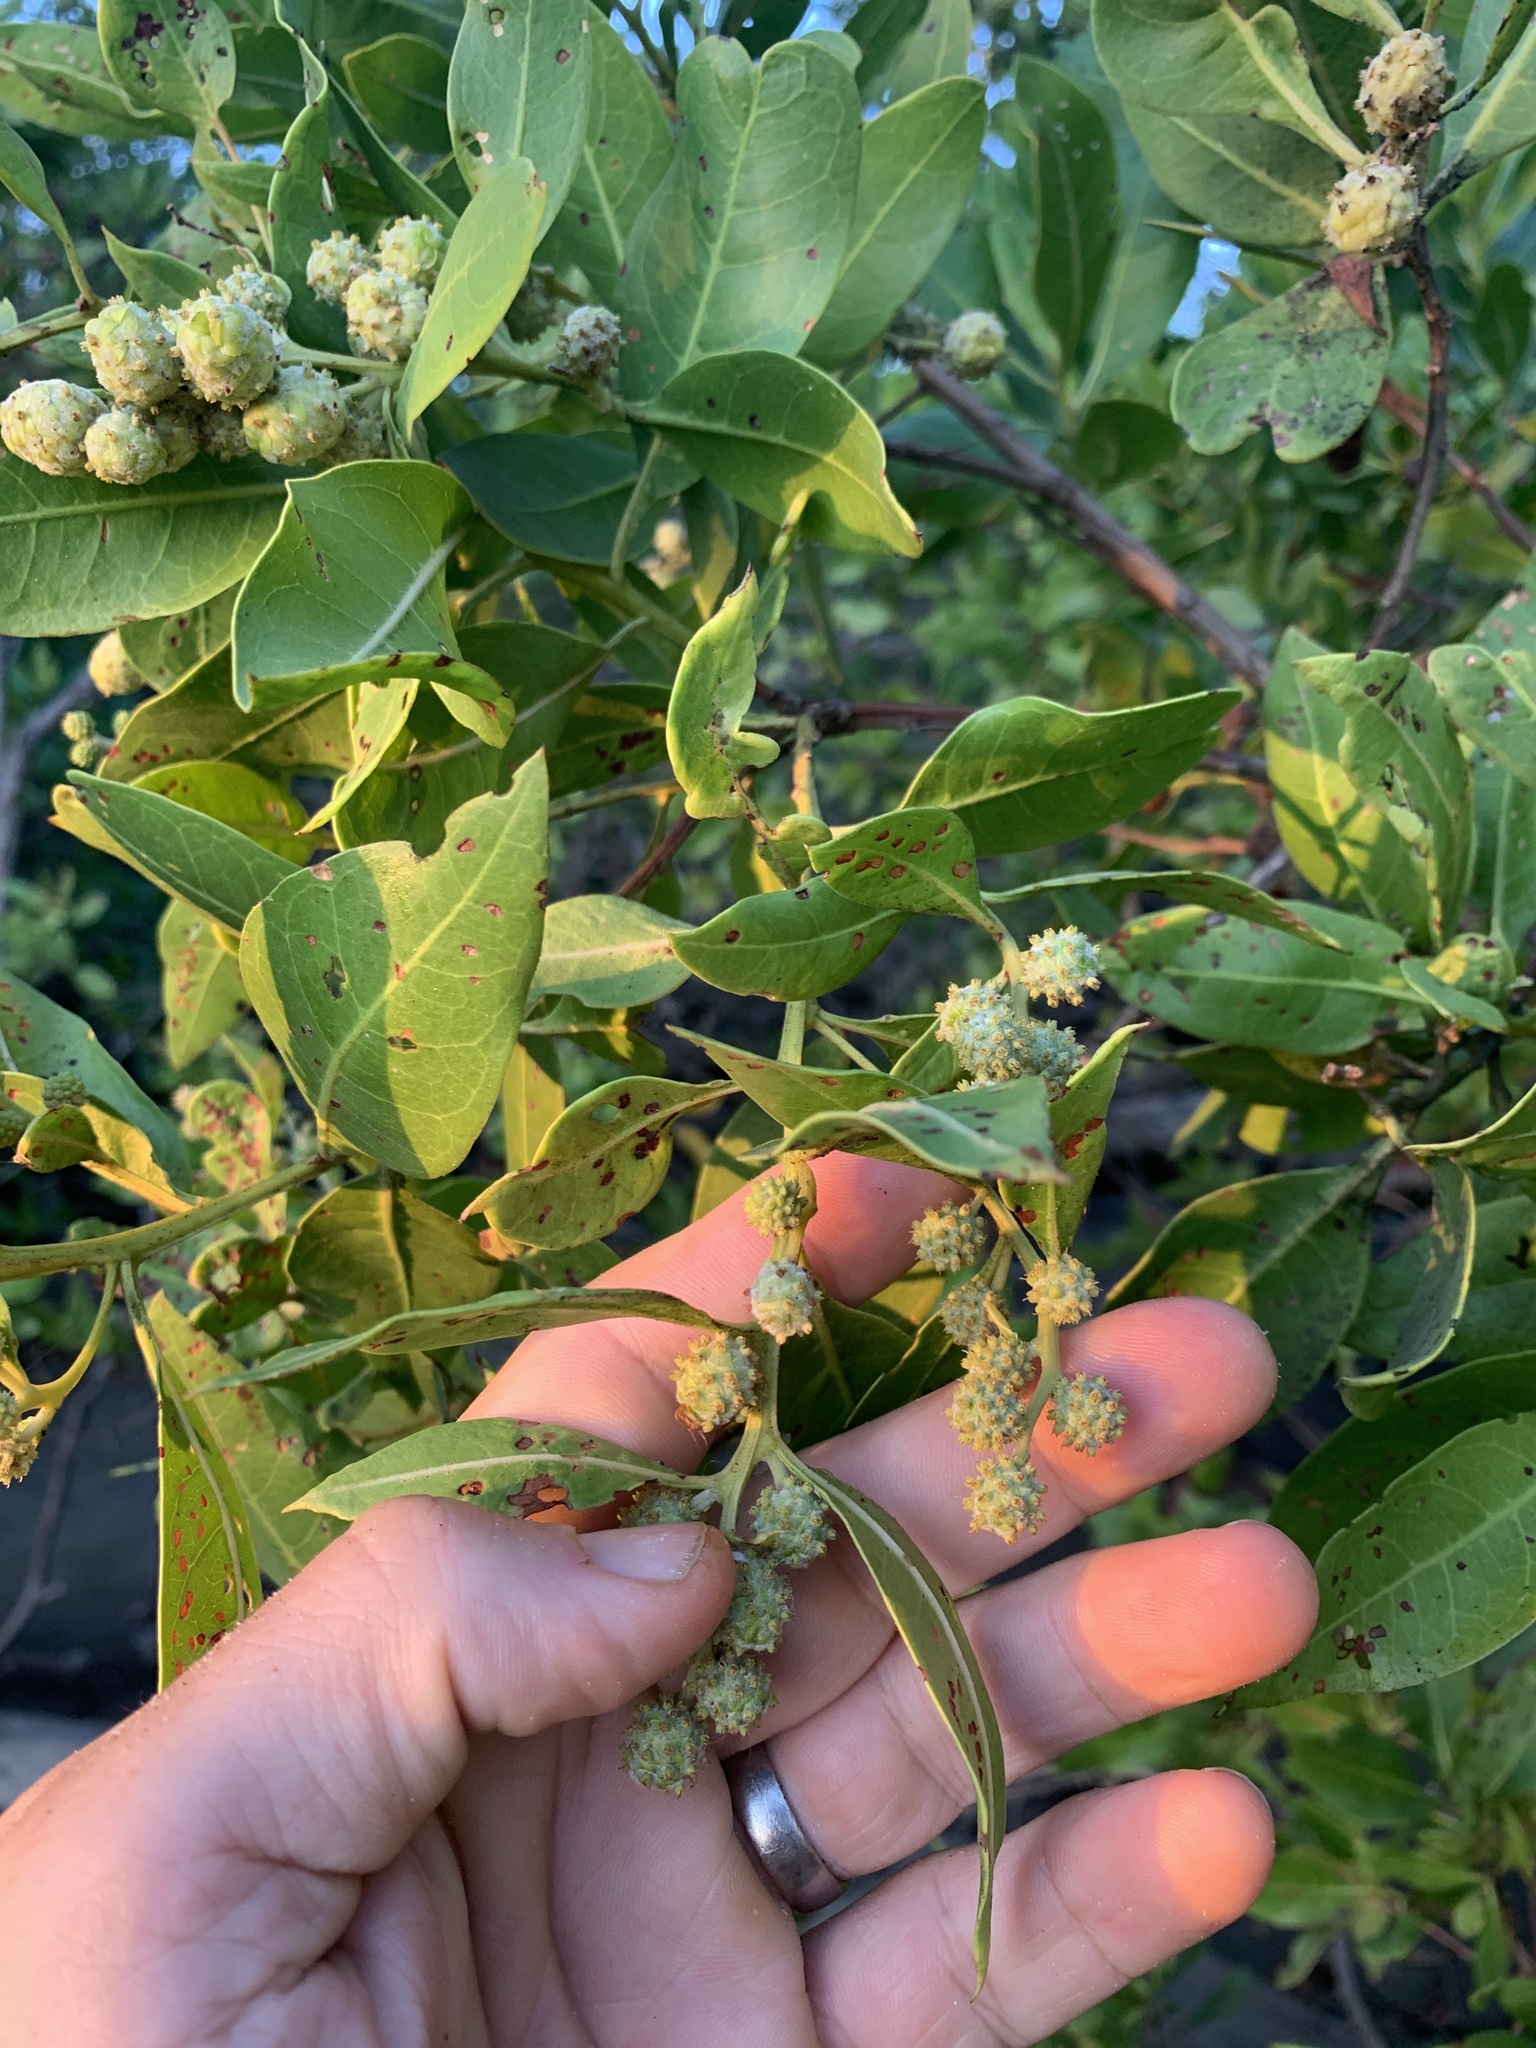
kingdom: Plantae
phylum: Tracheophyta
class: Magnoliopsida
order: Myrtales
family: Combretaceae
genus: Conocarpus
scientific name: Conocarpus erectus
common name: Button mangrove
